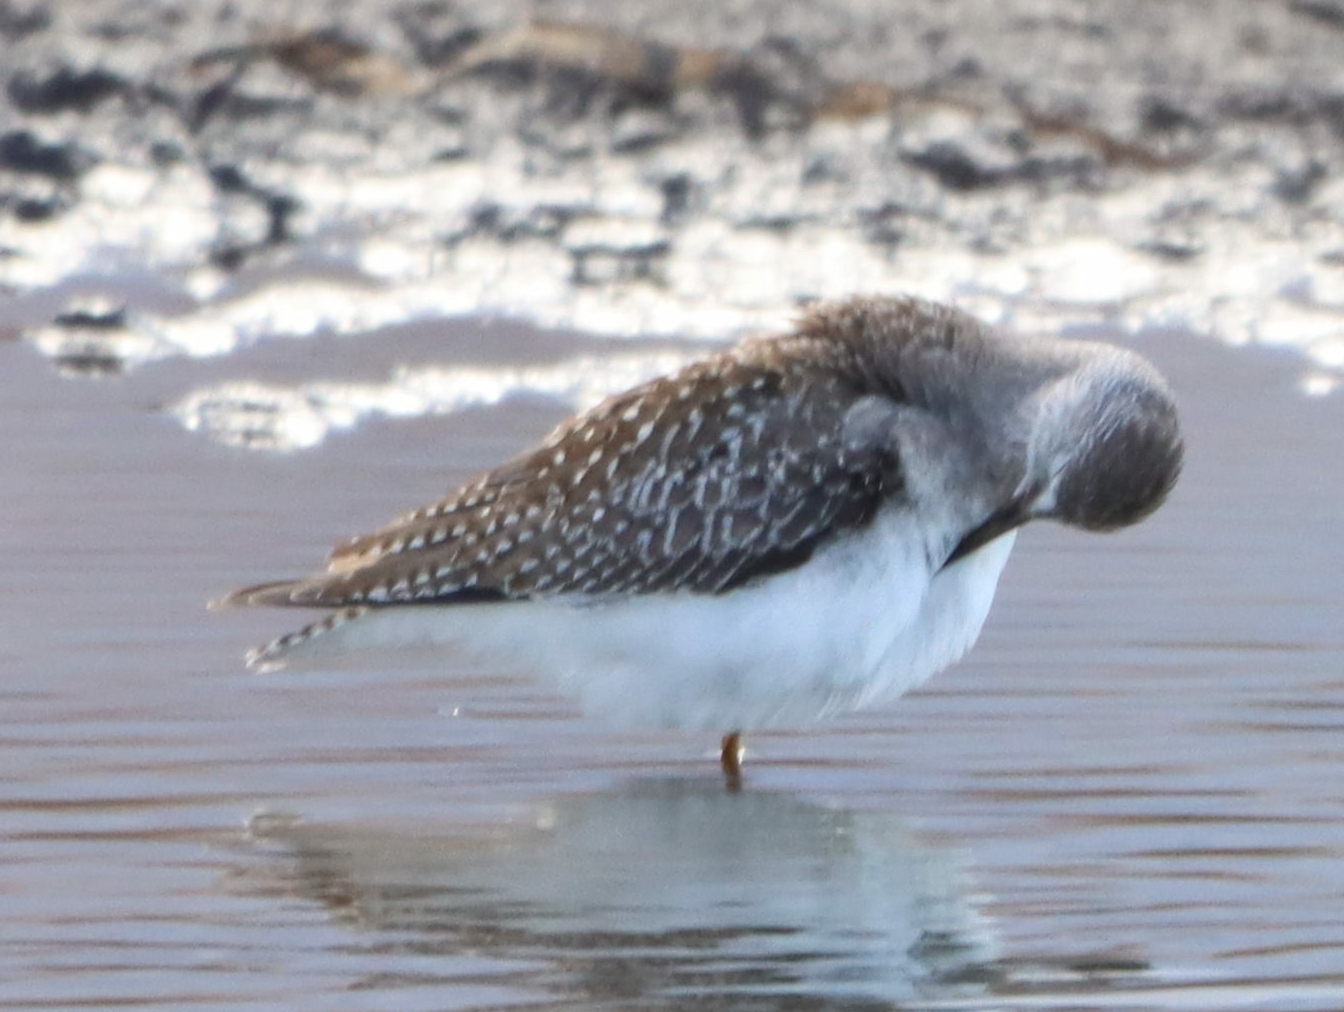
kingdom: Animalia
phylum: Chordata
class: Aves
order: Charadriiformes
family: Scolopacidae
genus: Tringa
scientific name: Tringa melanoleuca
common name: Greater yellowlegs
